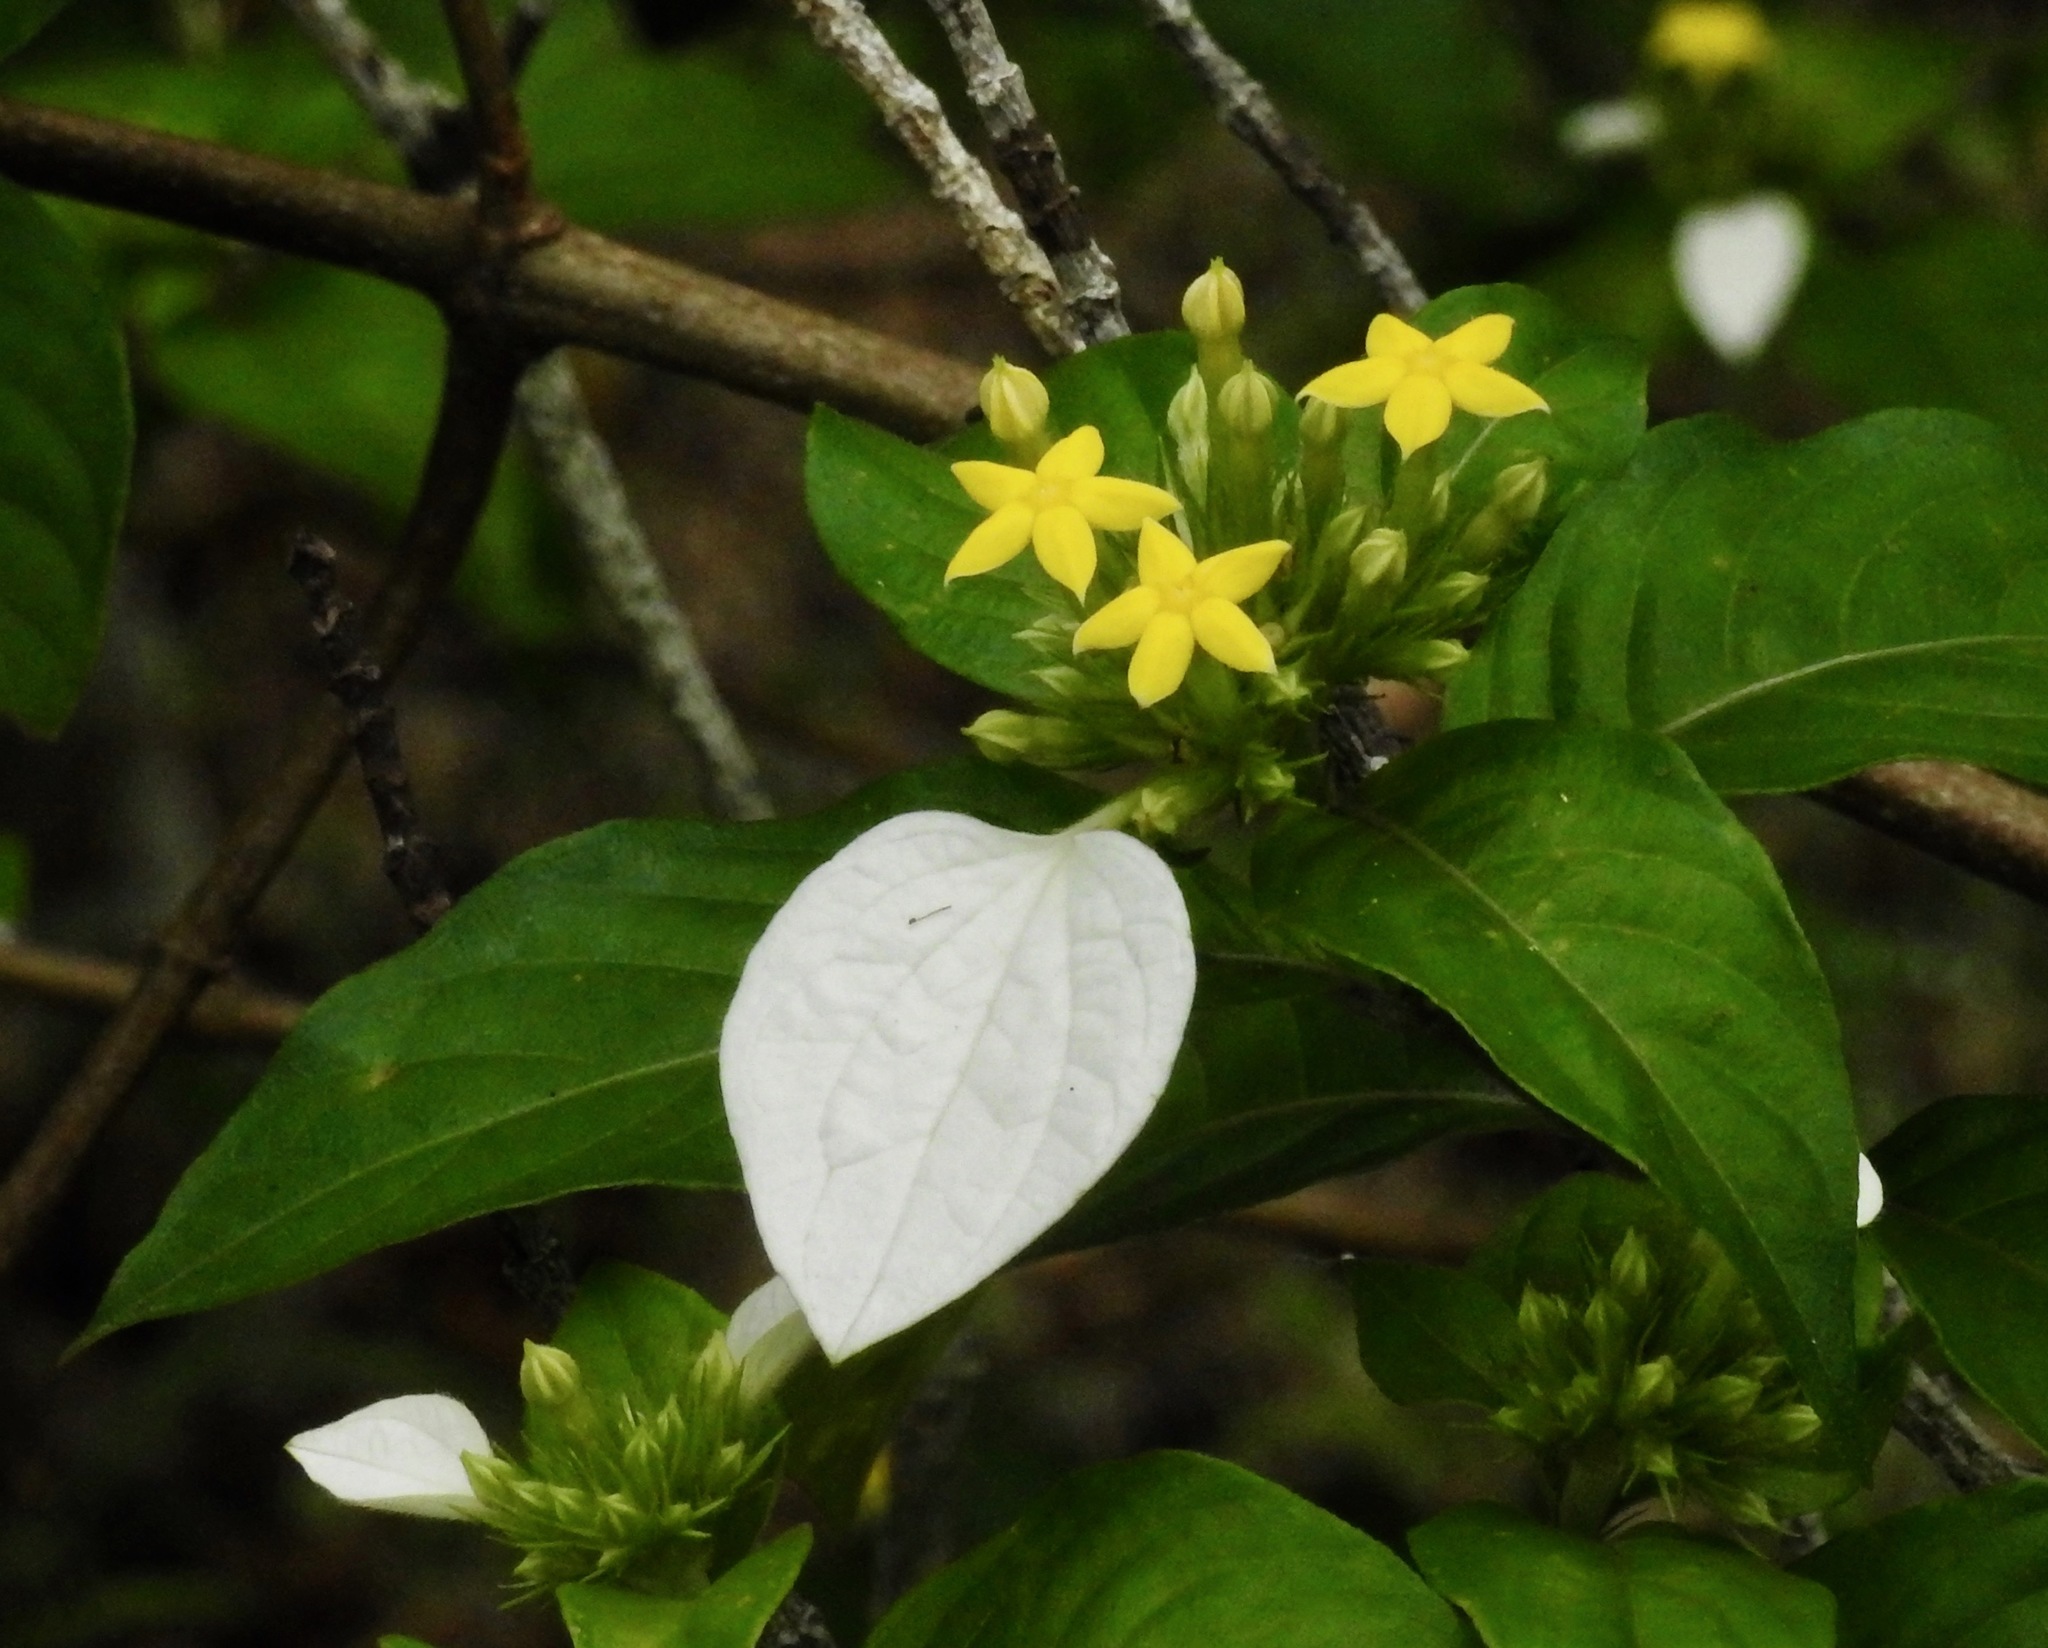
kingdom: Plantae
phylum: Tracheophyta
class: Magnoliopsida
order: Gentianales
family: Rubiaceae
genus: Mussaenda
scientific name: Mussaenda pubescens
